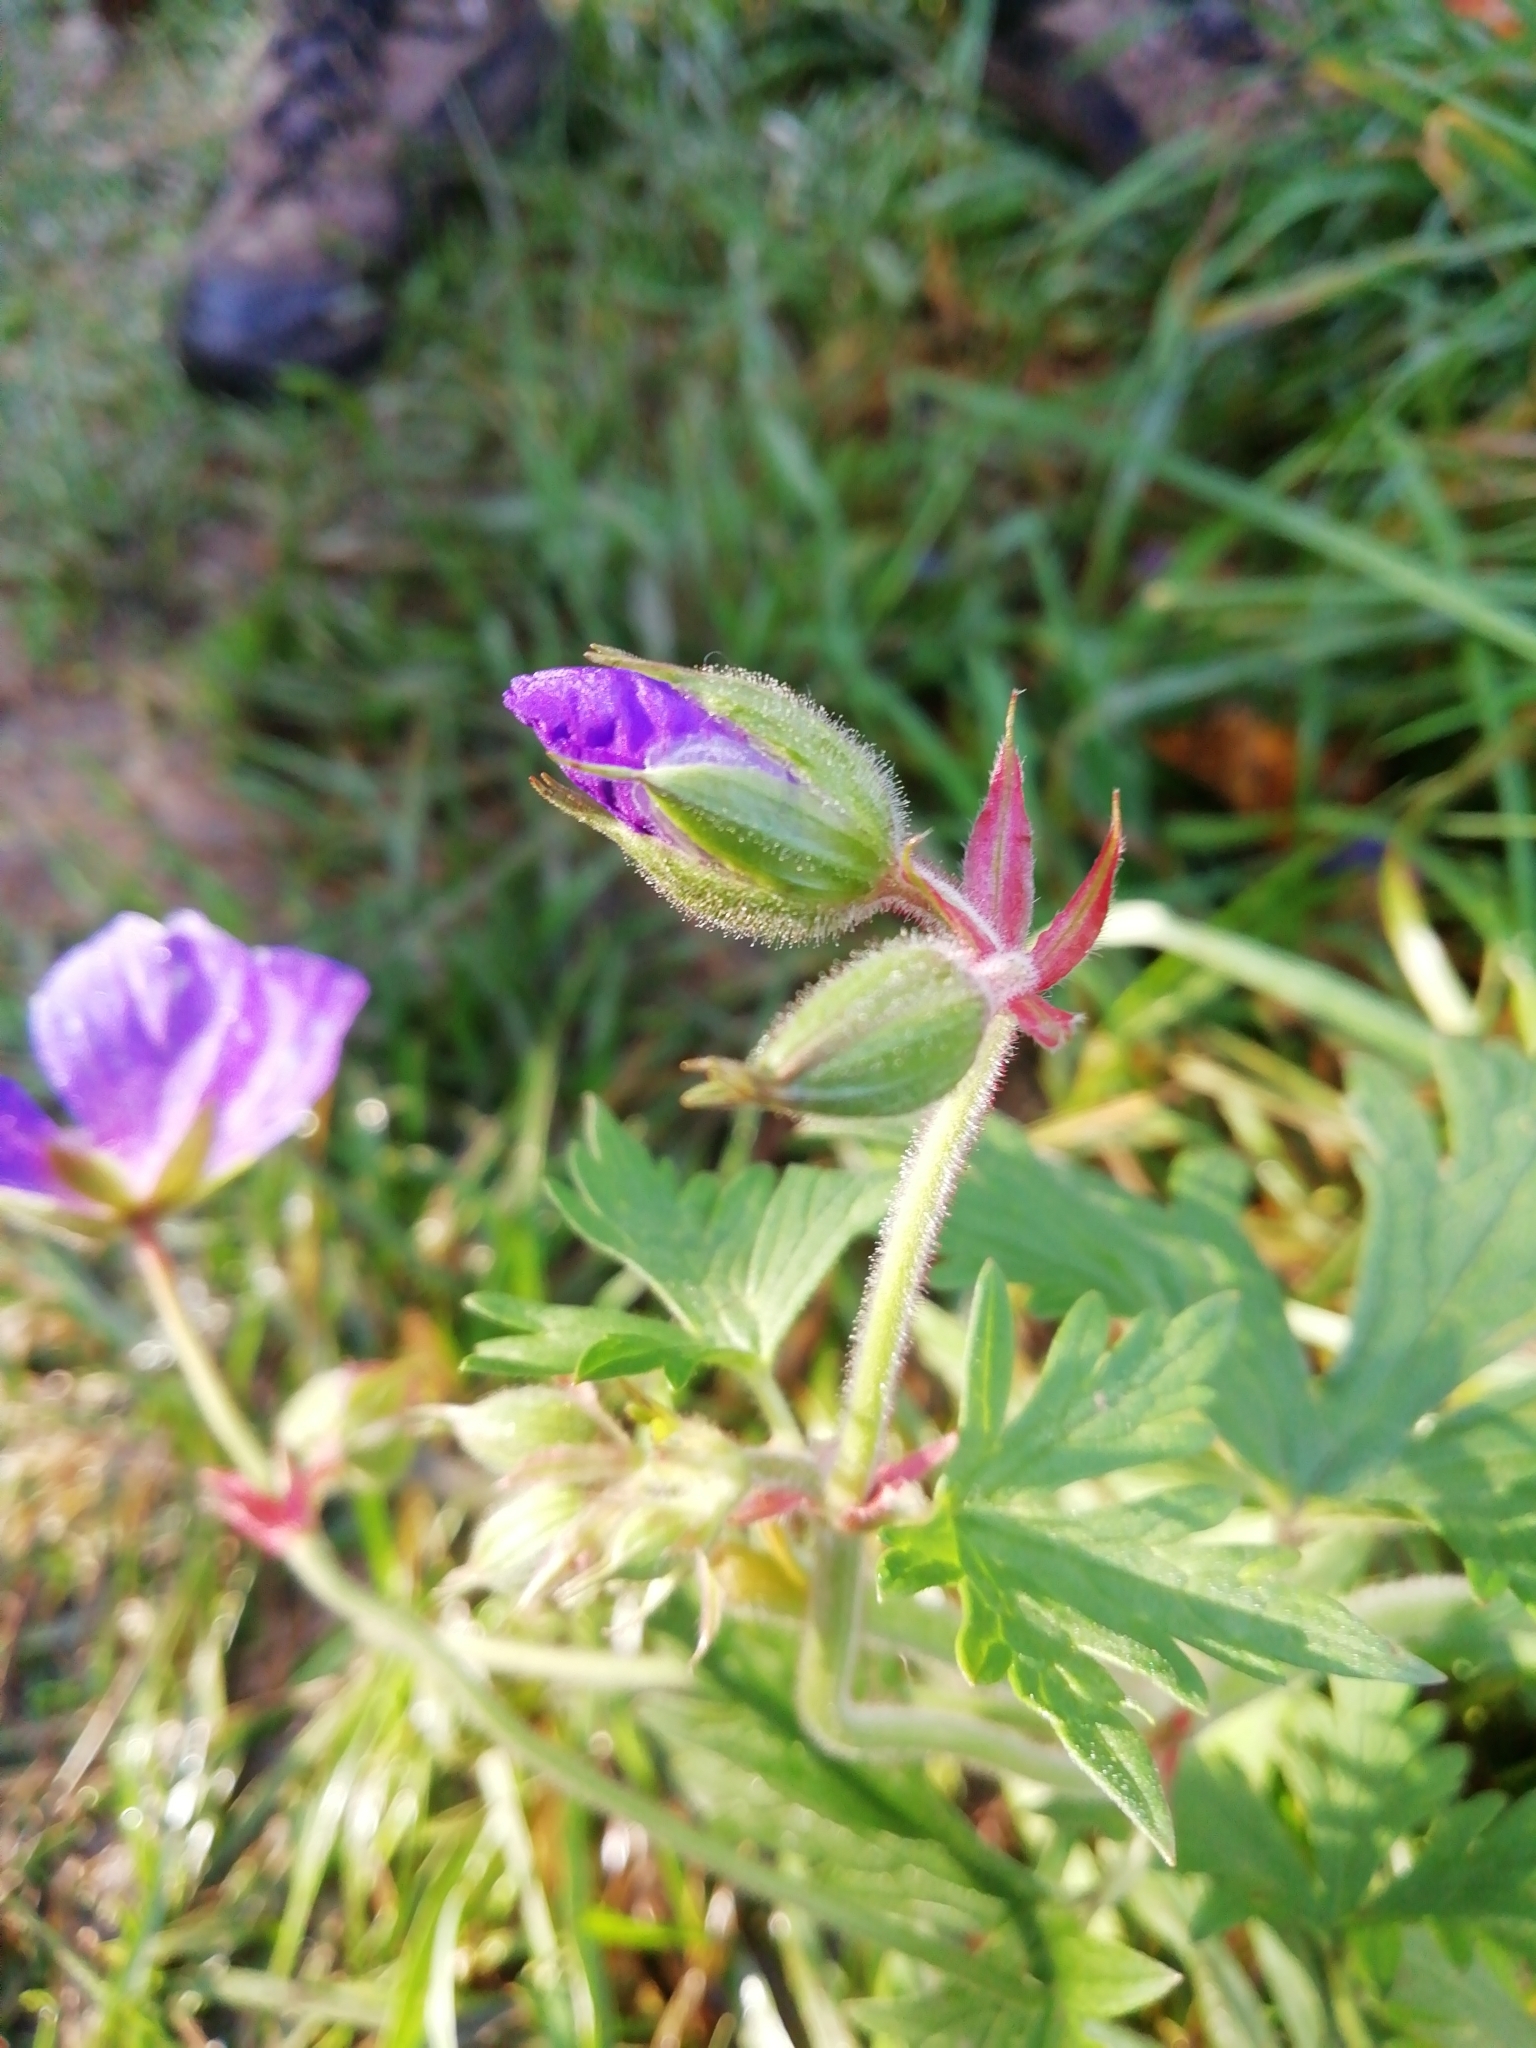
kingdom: Plantae
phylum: Tracheophyta
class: Magnoliopsida
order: Geraniales
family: Geraniaceae
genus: Geranium
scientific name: Geranium pratense
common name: Meadow crane's-bill
